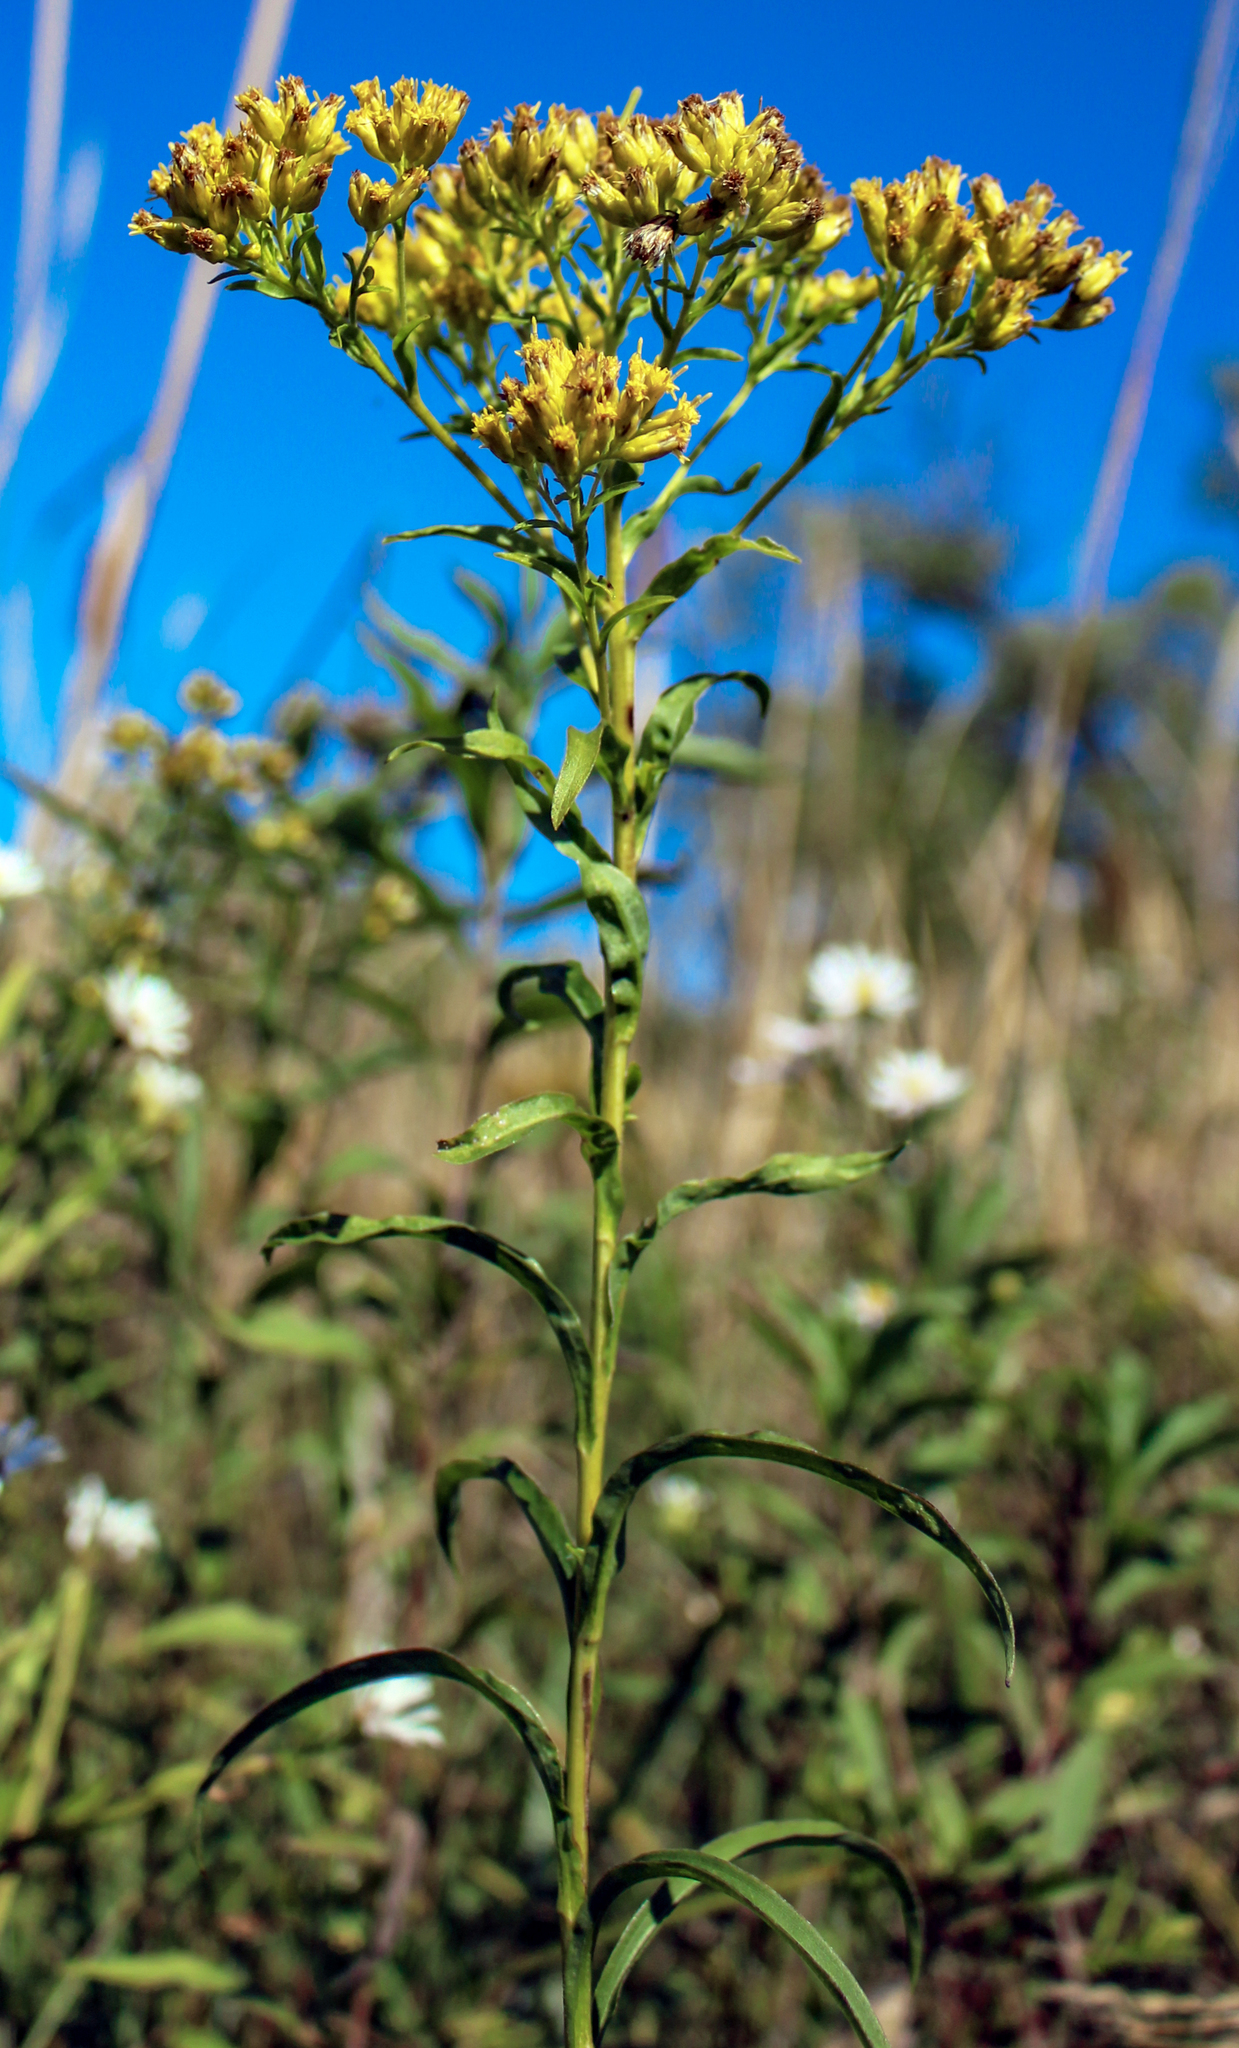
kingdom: Plantae
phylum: Tracheophyta
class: Magnoliopsida
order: Asterales
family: Asteraceae
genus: Solidago
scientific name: Solidago riddellii
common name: Riddell's goldenrod
